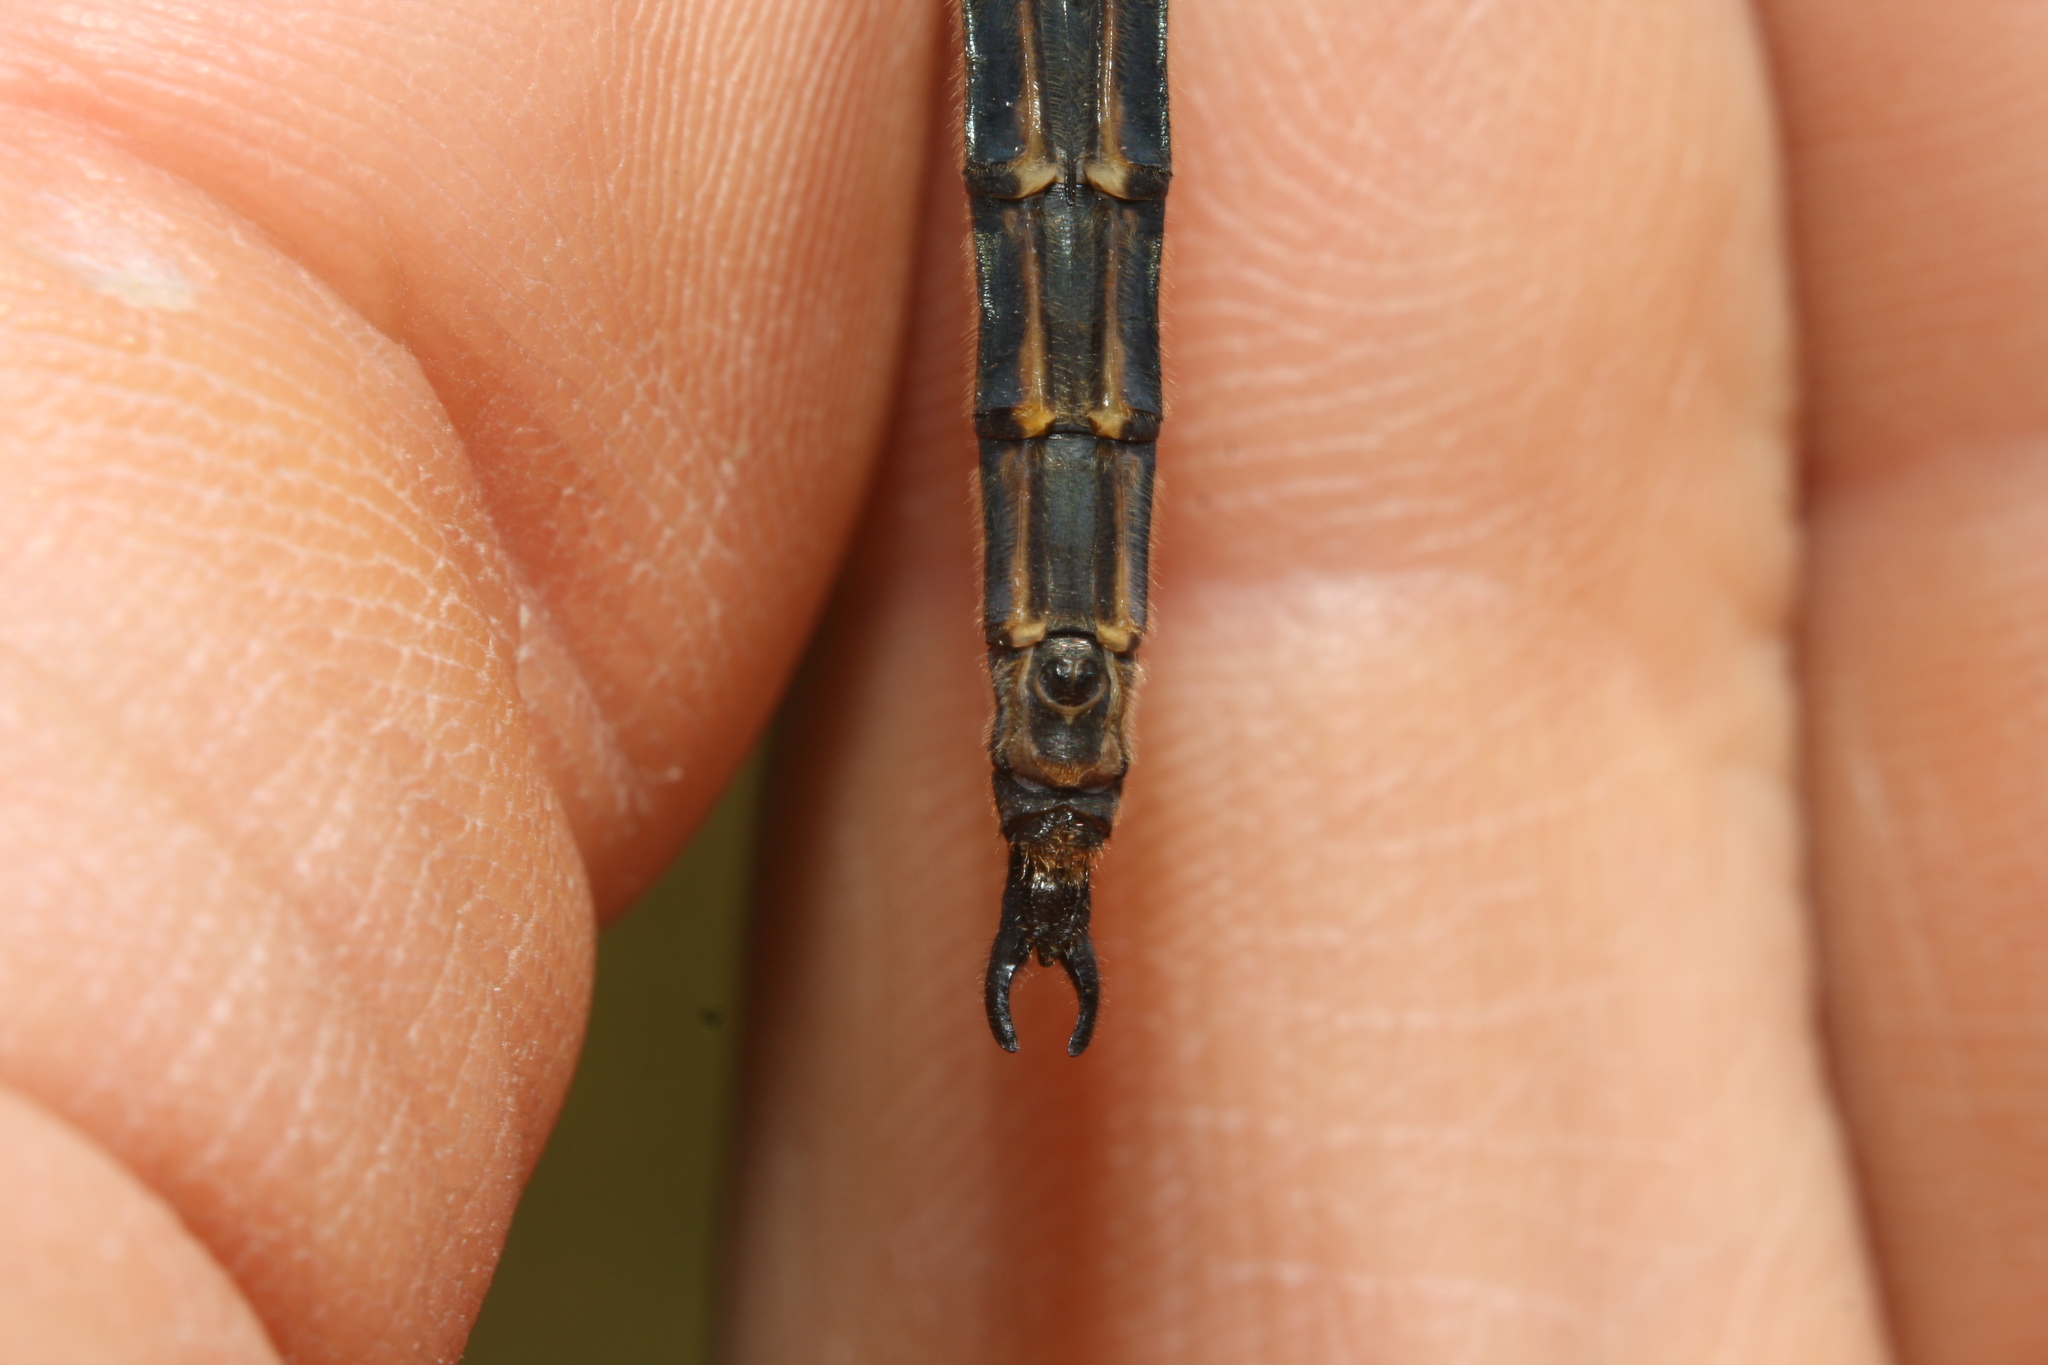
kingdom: Animalia
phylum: Arthropoda
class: Insecta
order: Odonata
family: Corduliidae
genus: Somatochlora
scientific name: Somatochlora arctica
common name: Northern emerald
